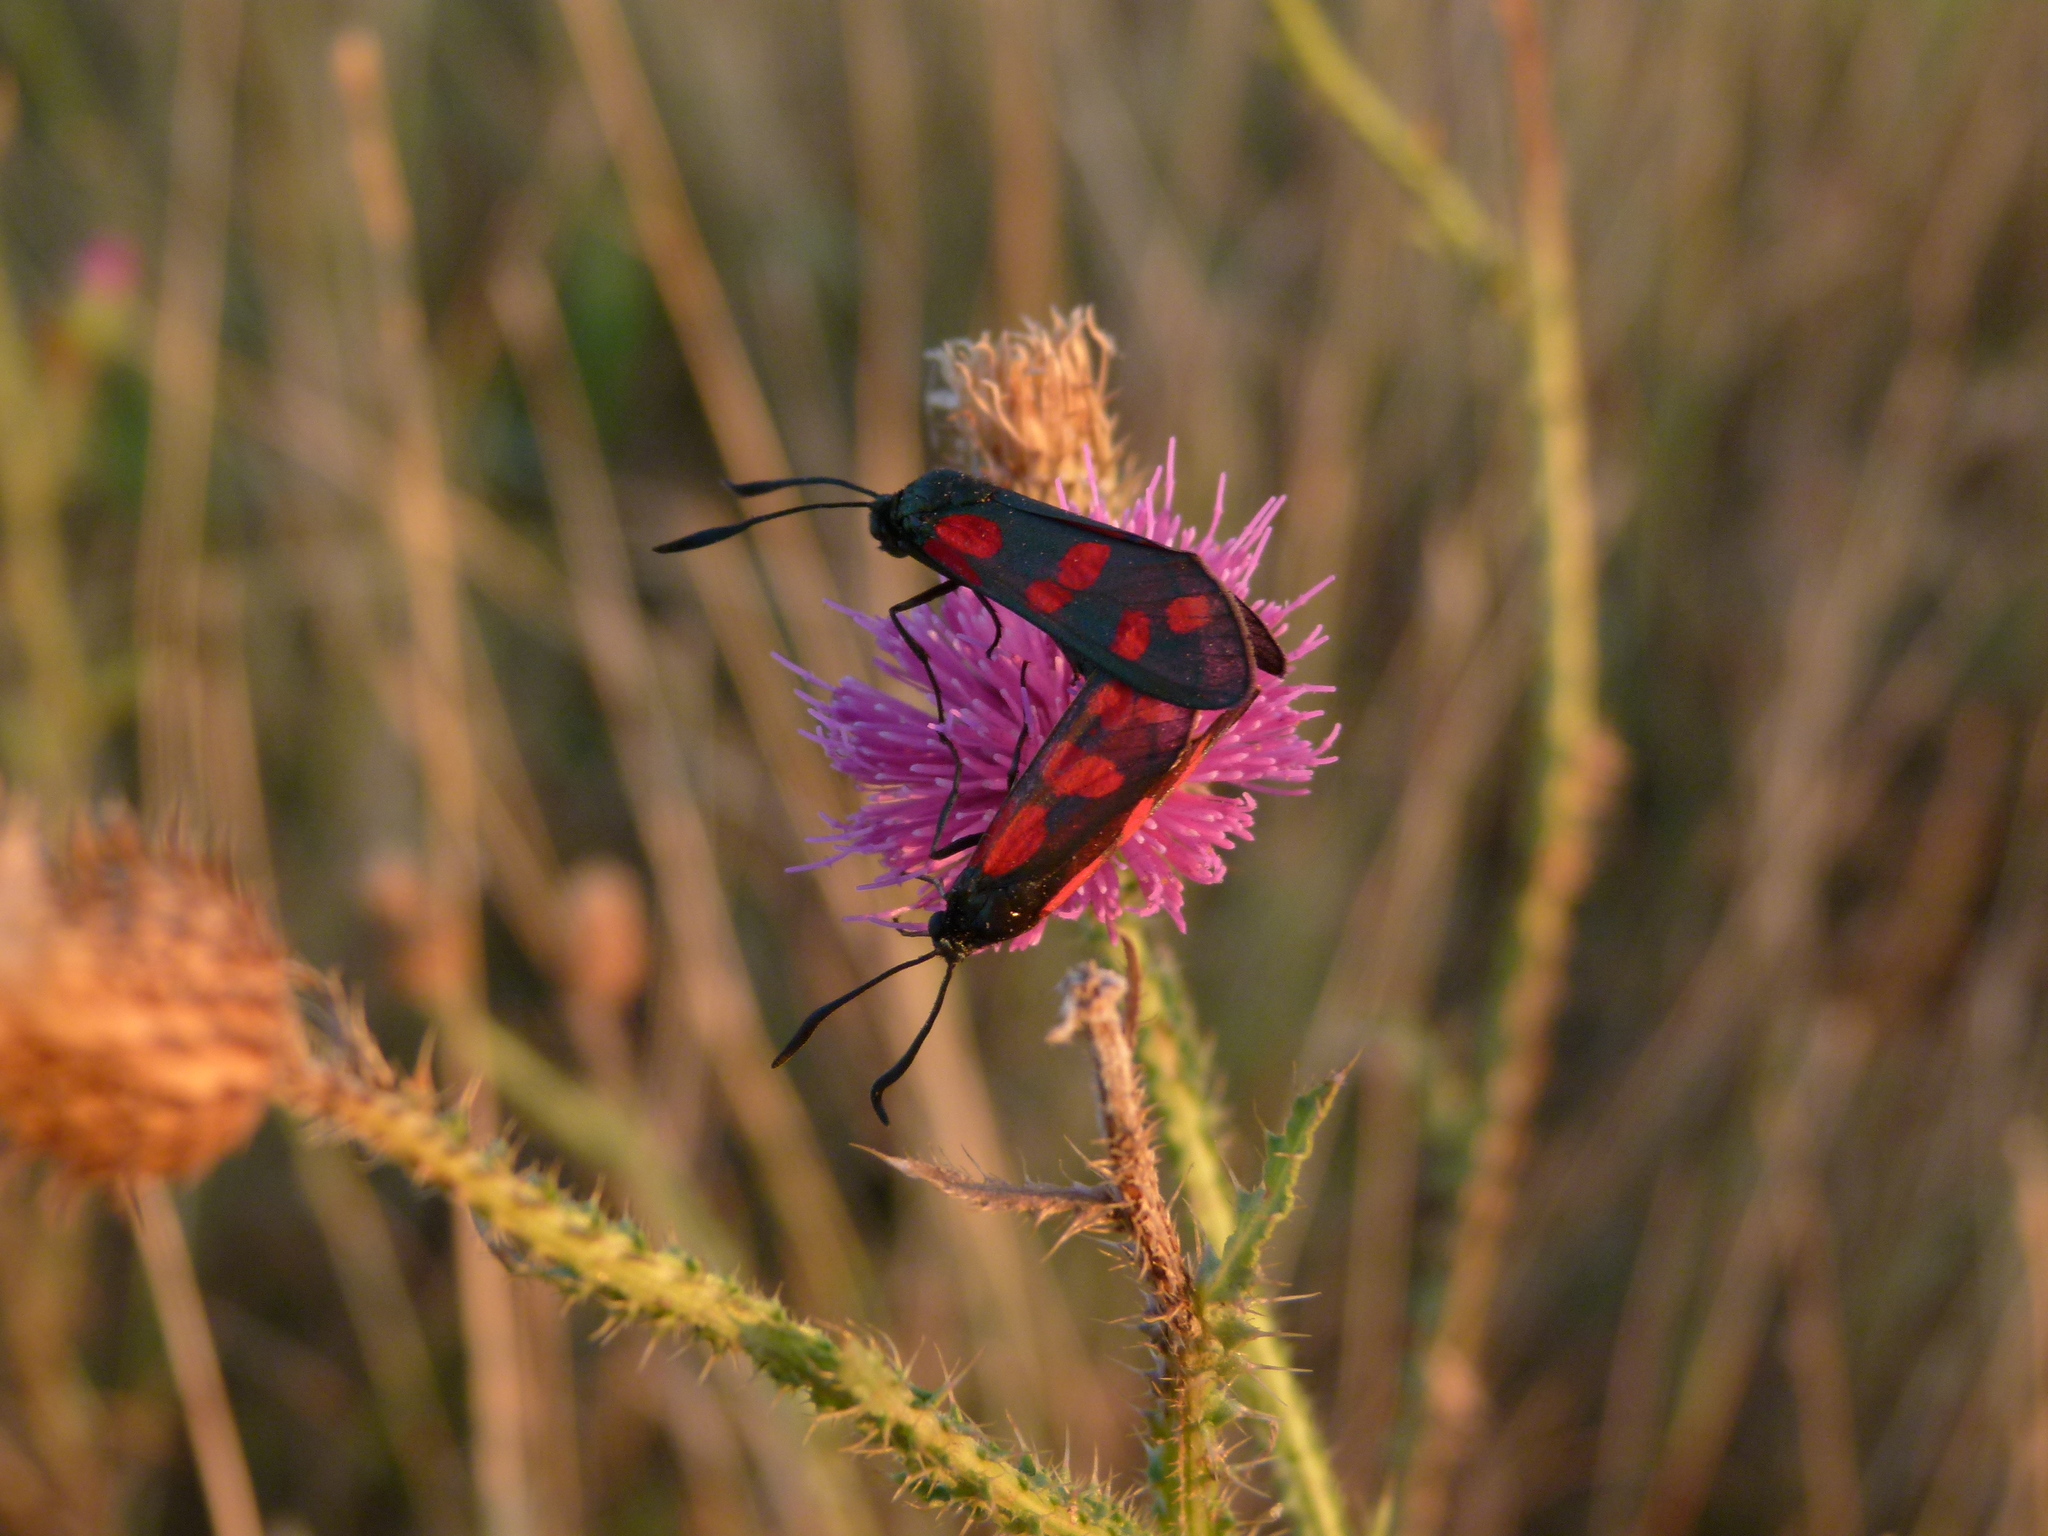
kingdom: Animalia
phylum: Arthropoda
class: Insecta
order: Lepidoptera
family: Zygaenidae
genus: Zygaena
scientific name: Zygaena filipendulae
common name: Six-spot burnet
